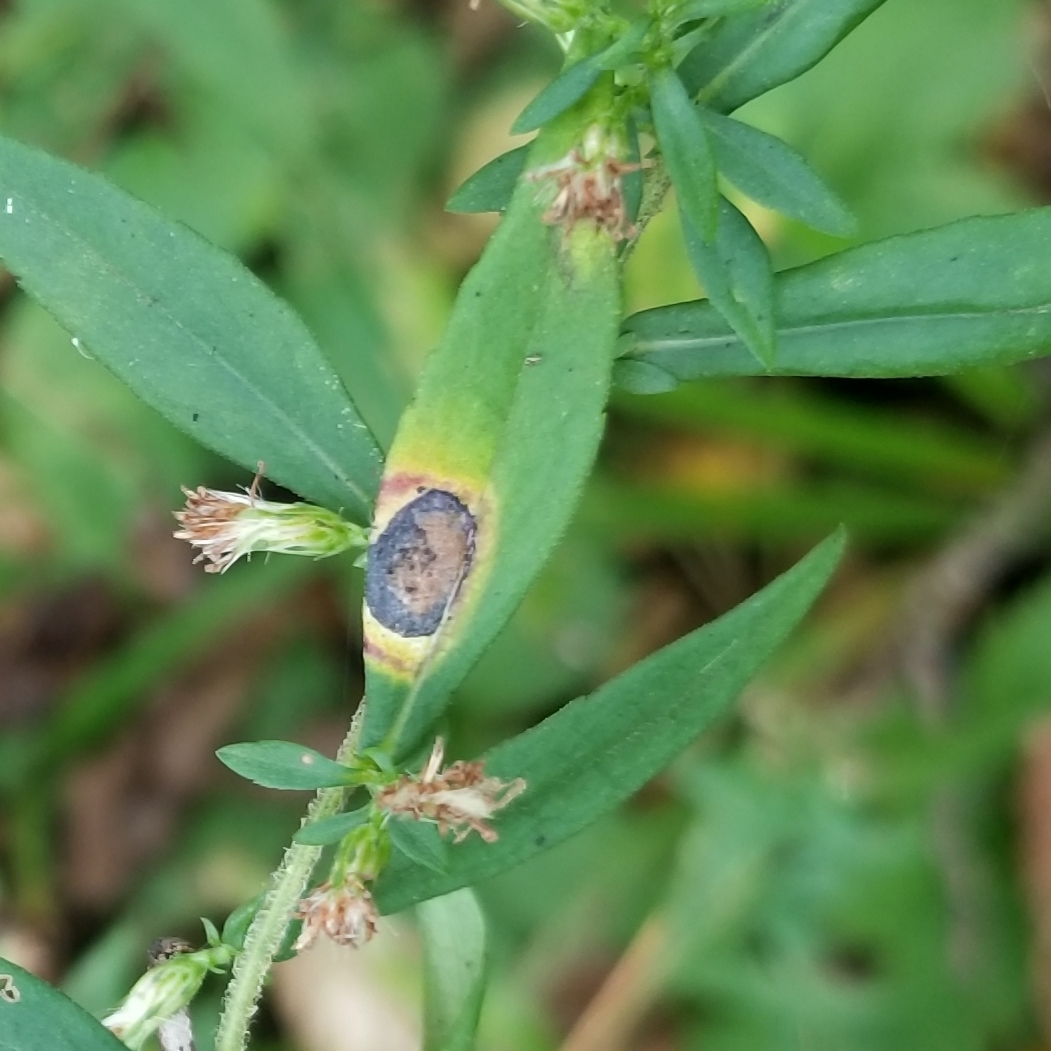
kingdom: Animalia
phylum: Arthropoda
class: Insecta
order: Diptera
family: Cecidomyiidae
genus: Asteromyia
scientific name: Asteromyia laeviana
